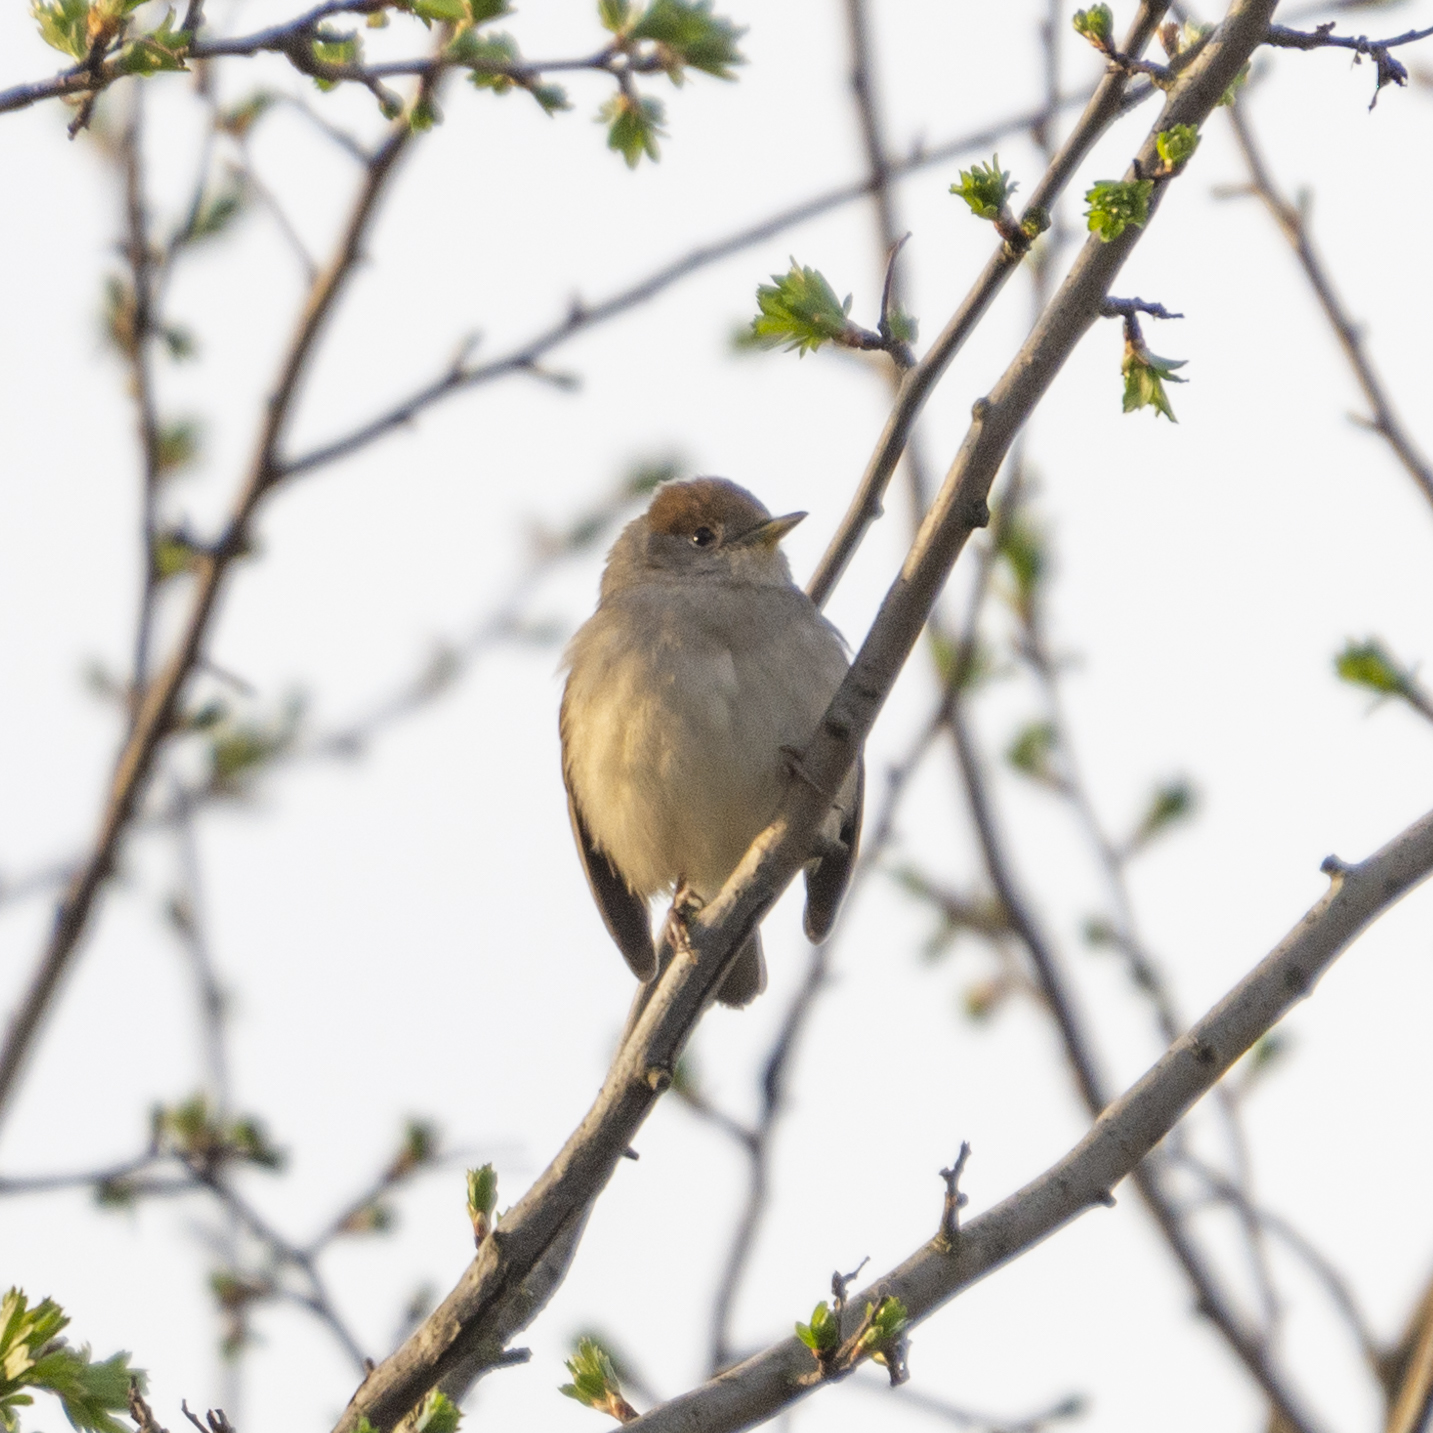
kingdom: Animalia
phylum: Chordata
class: Aves
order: Passeriformes
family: Sylviidae
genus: Sylvia
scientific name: Sylvia atricapilla
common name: Eurasian blackcap
